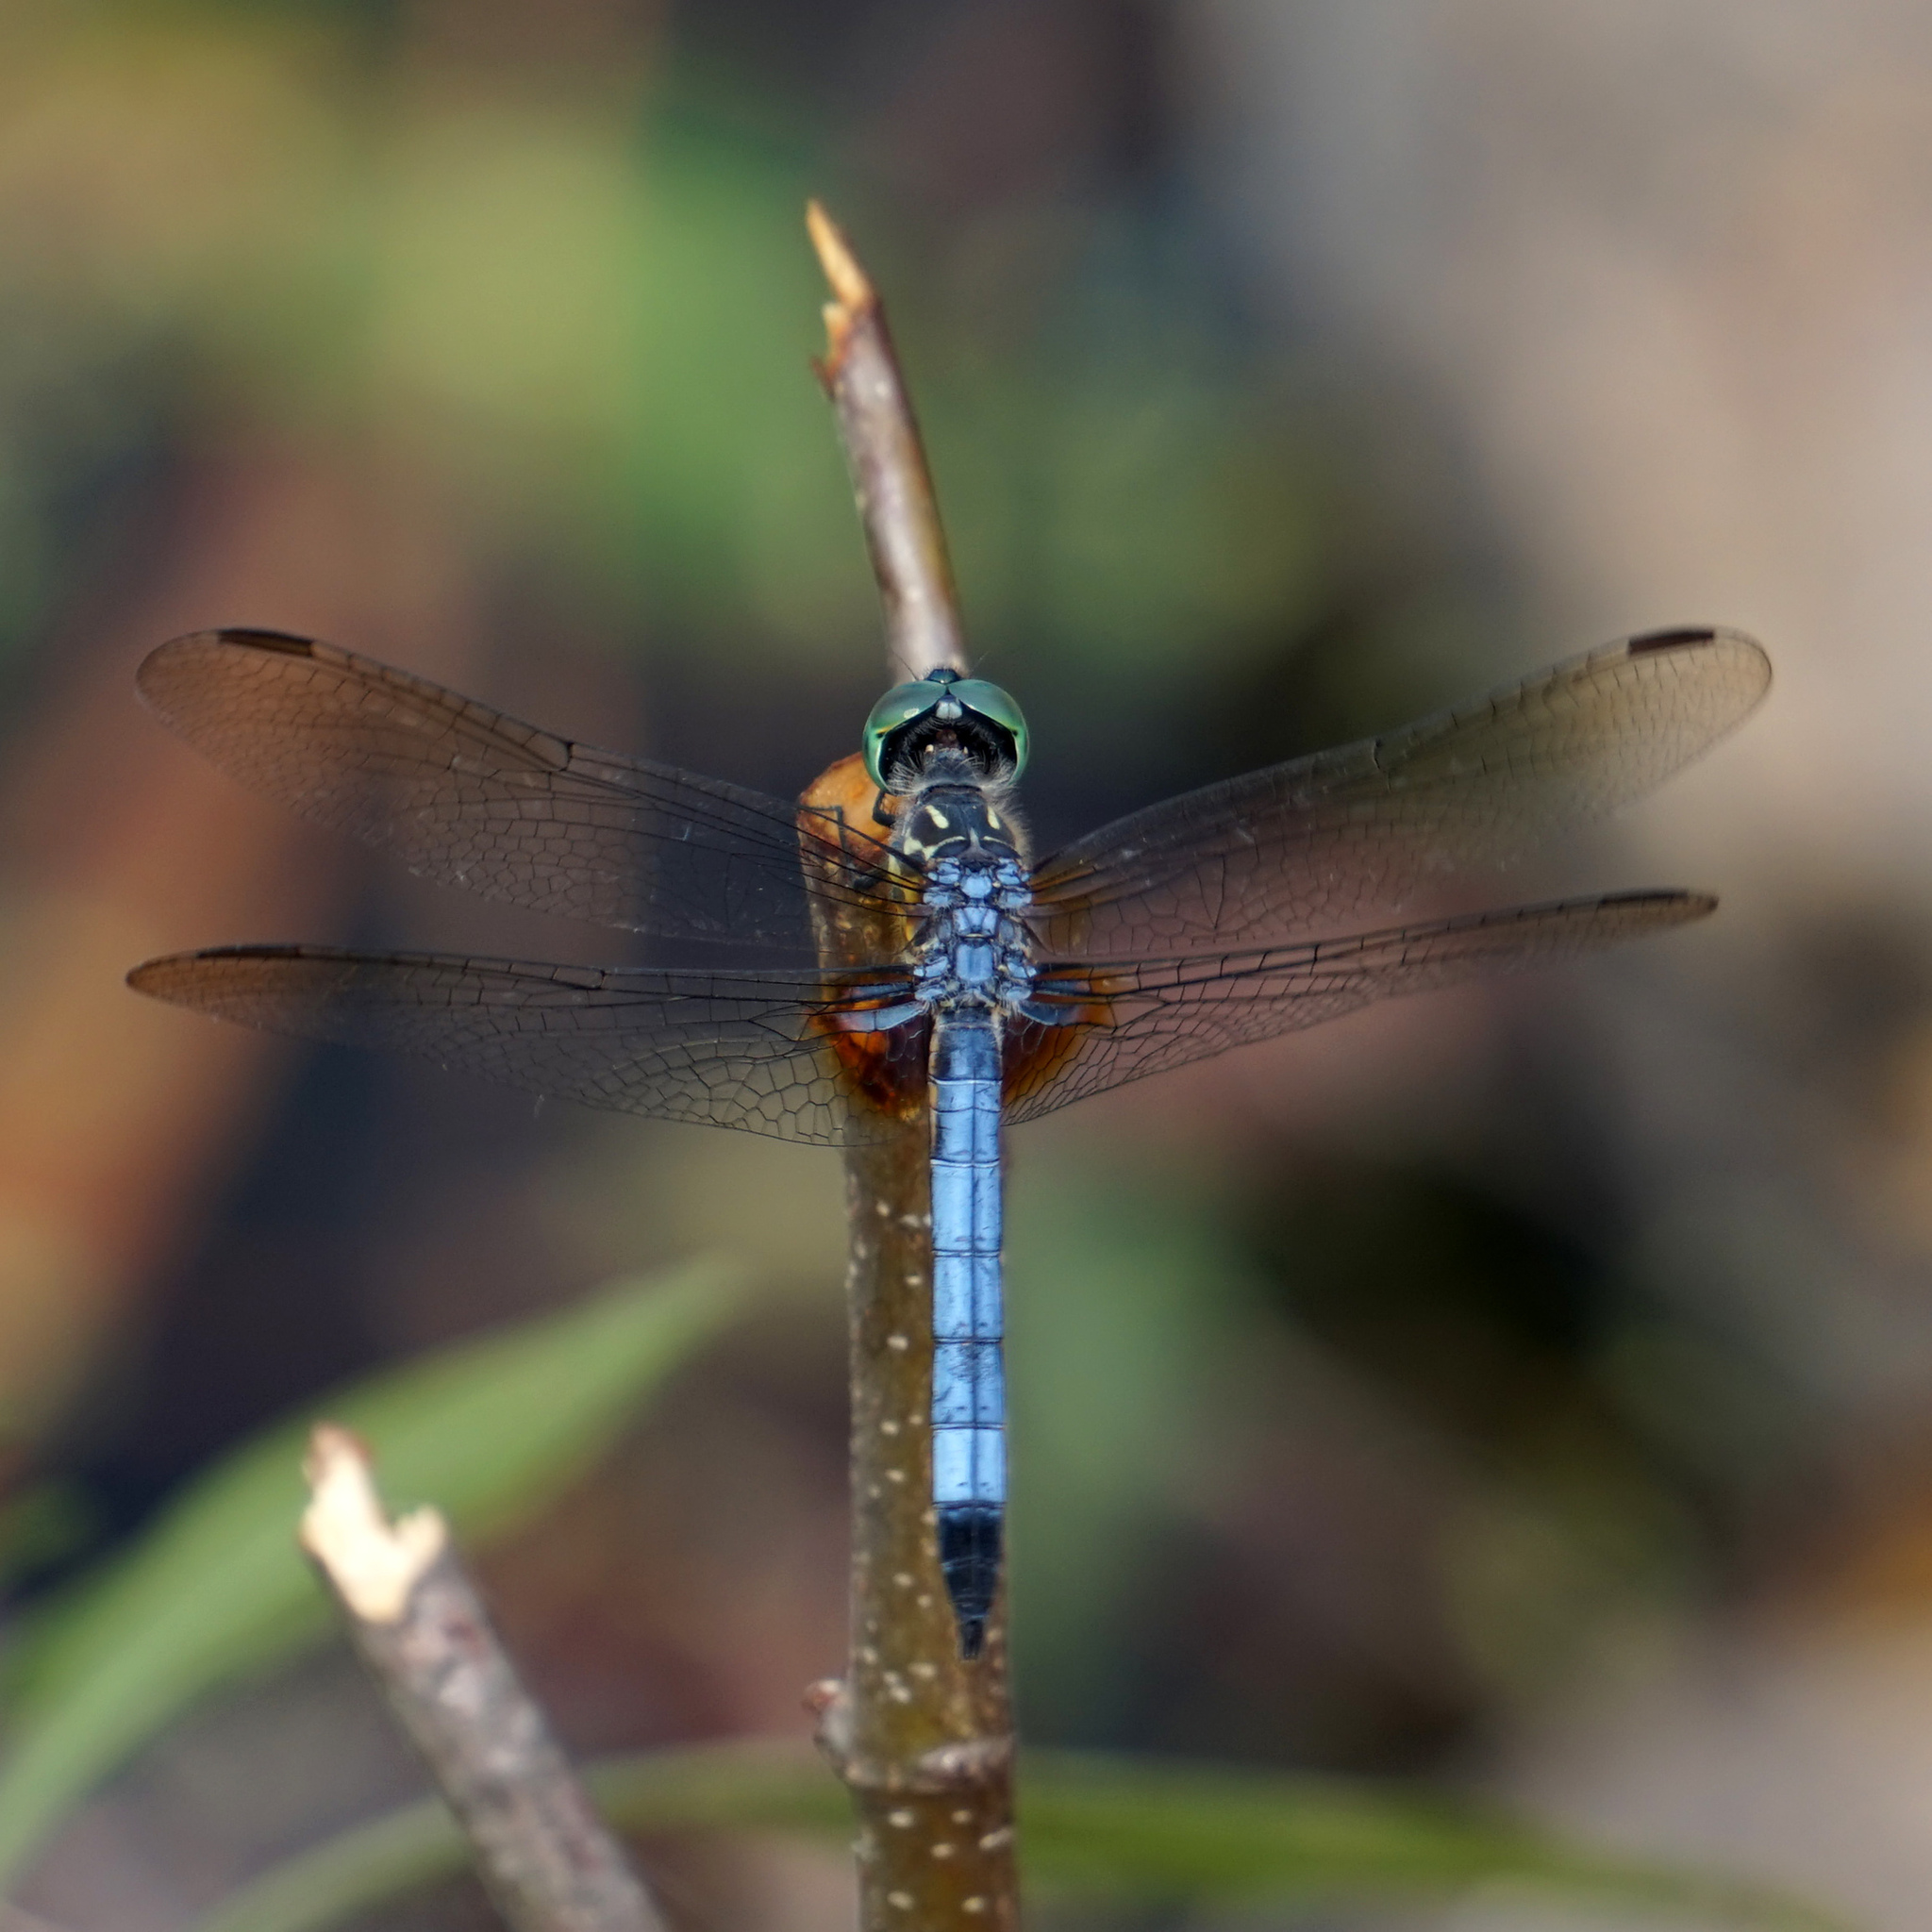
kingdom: Animalia
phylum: Arthropoda
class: Insecta
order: Odonata
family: Libellulidae
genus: Pachydiplax
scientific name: Pachydiplax longipennis
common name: Blue dasher
